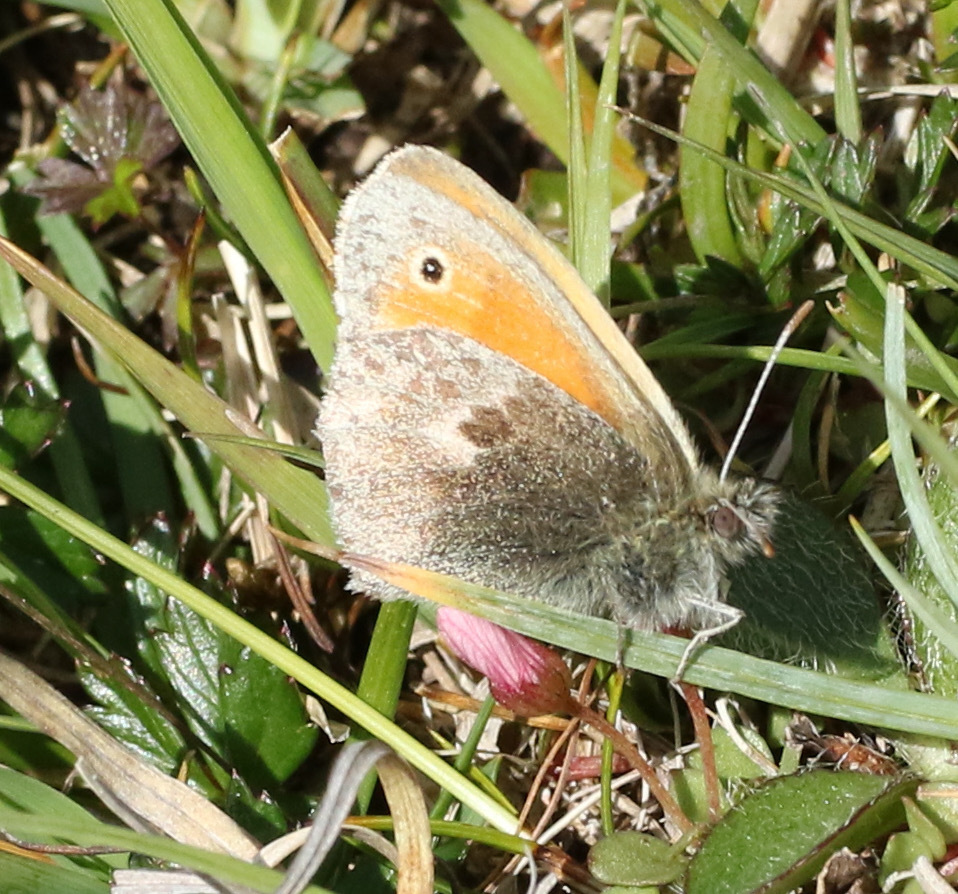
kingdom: Animalia
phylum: Arthropoda
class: Insecta
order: Lepidoptera
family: Nymphalidae
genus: Coenonympha
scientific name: Coenonympha pamphilus
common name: Small heath
